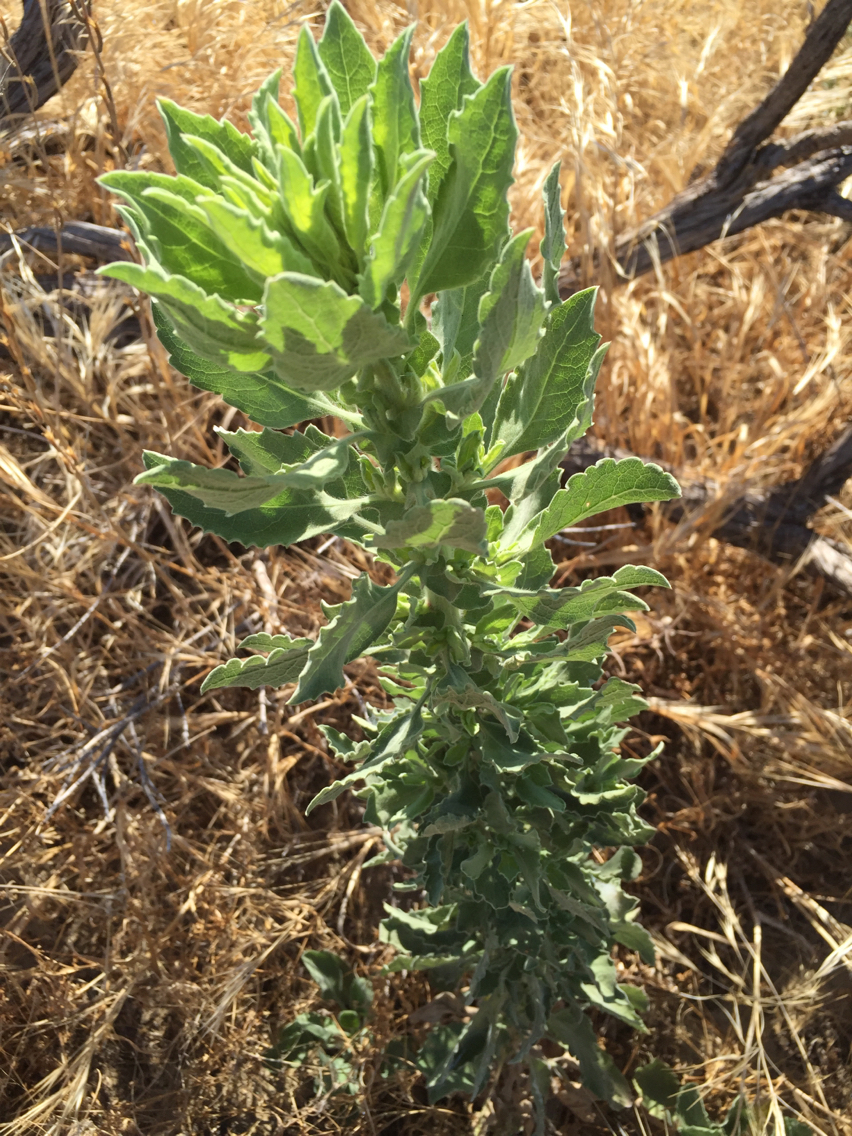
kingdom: Plantae
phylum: Tracheophyta
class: Magnoliopsida
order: Asterales
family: Asteraceae
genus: Heterotheca
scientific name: Heterotheca grandiflora
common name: Telegraphweed
